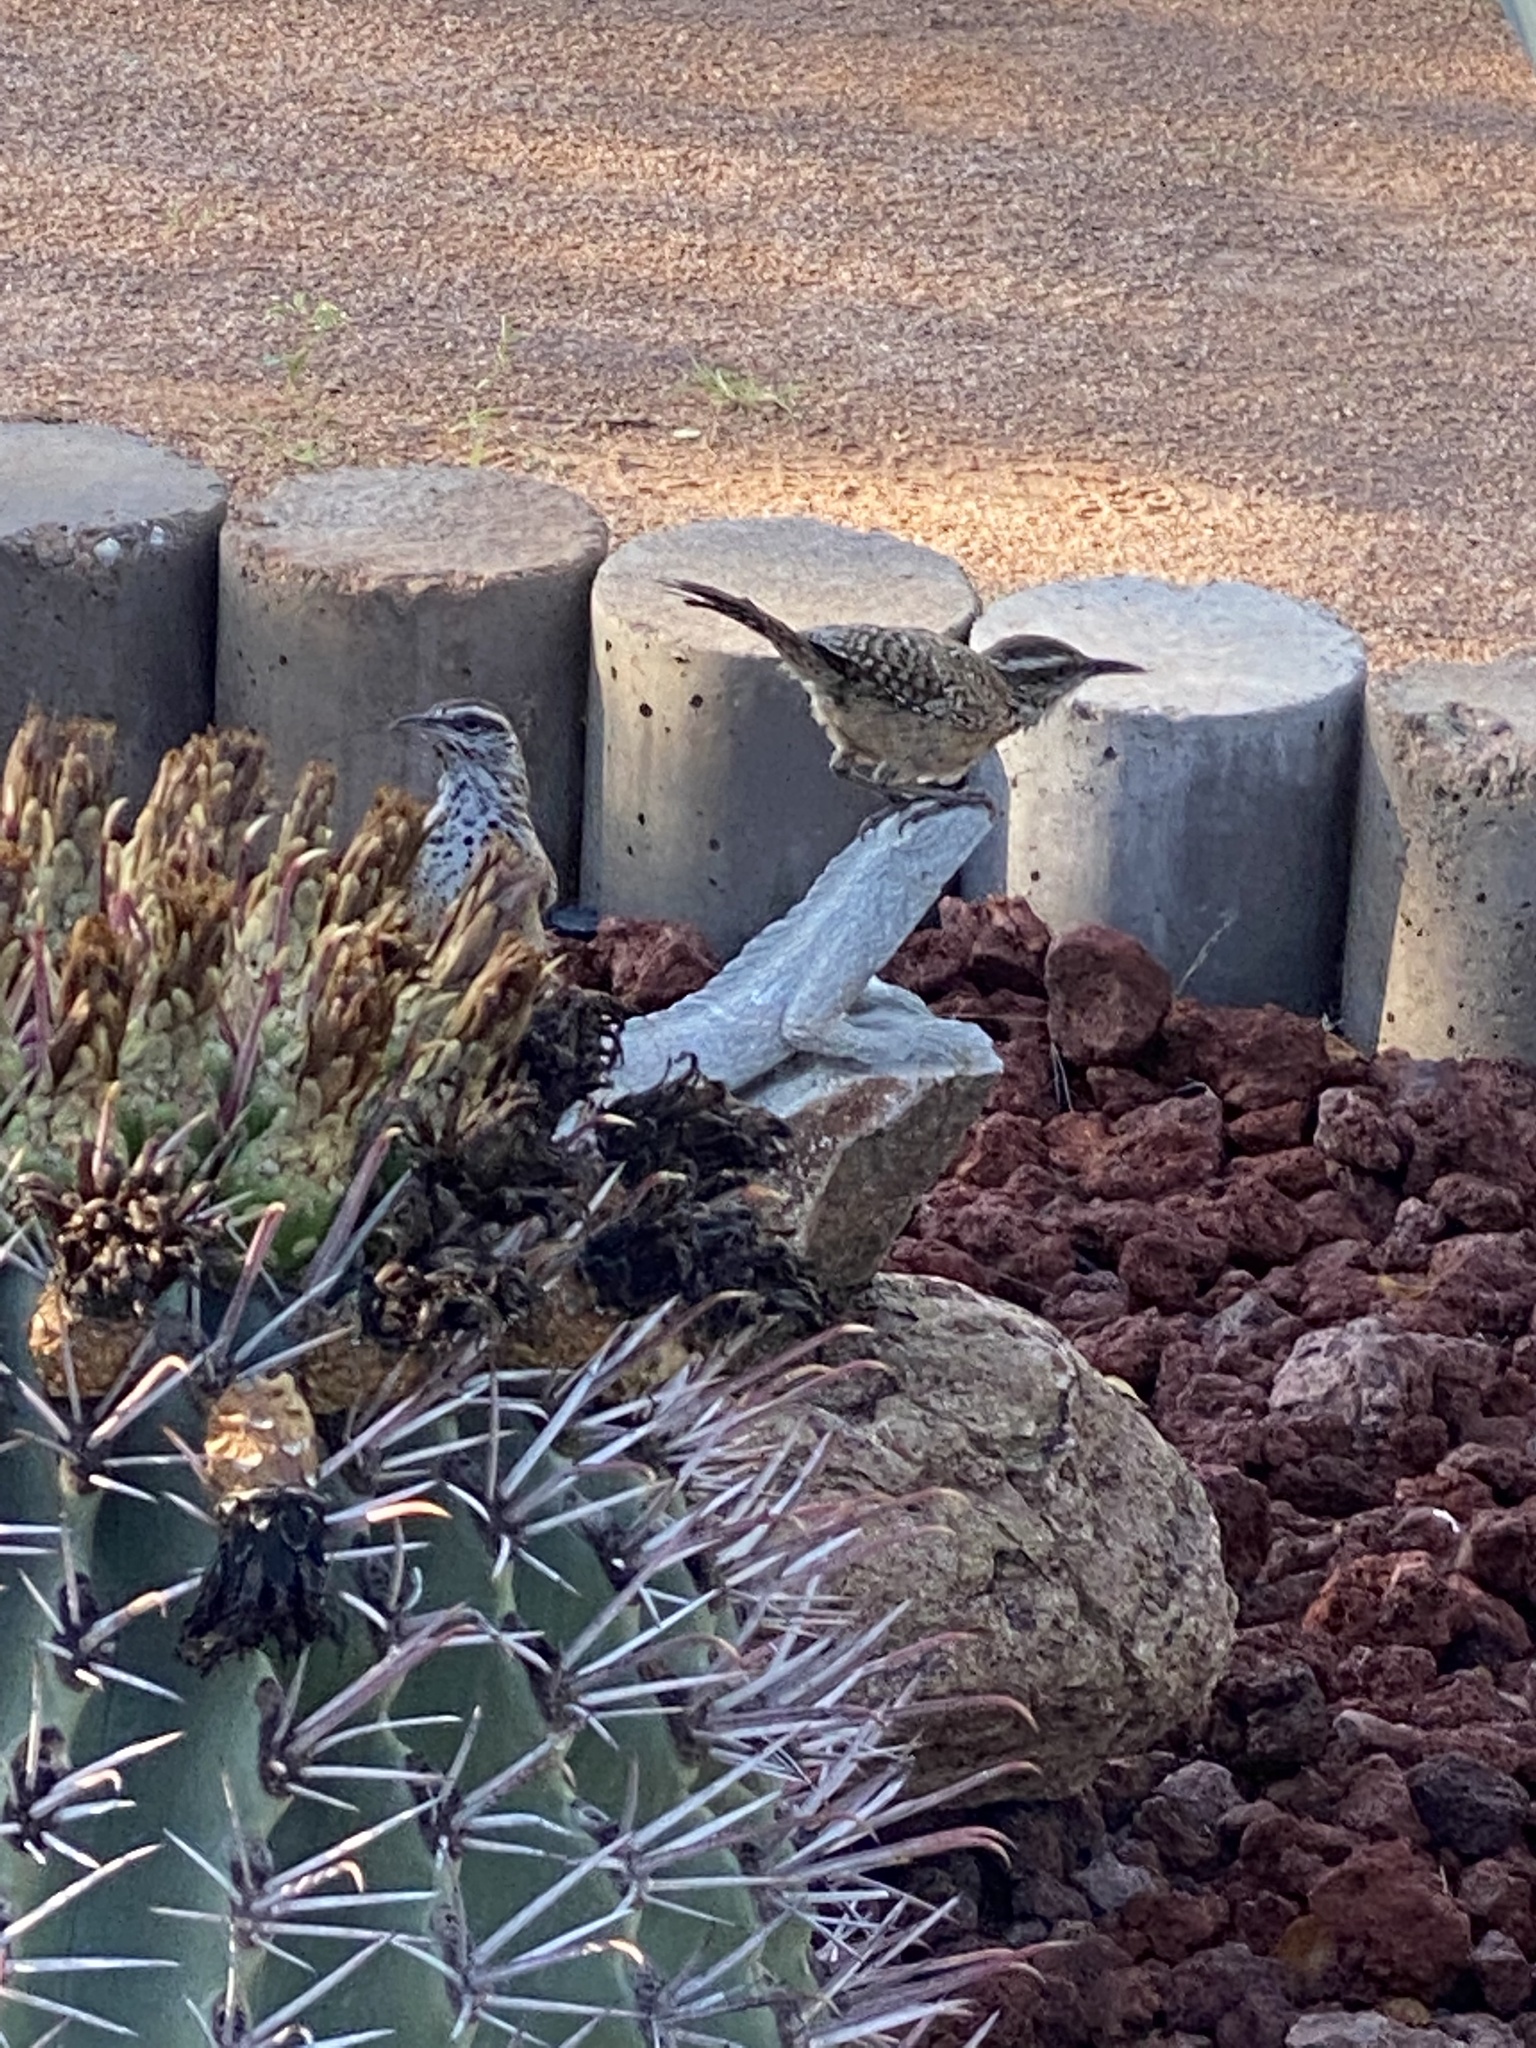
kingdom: Animalia
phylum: Chordata
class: Aves
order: Passeriformes
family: Troglodytidae
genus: Campylorhynchus
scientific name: Campylorhynchus brunneicapillus
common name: Cactus wren
